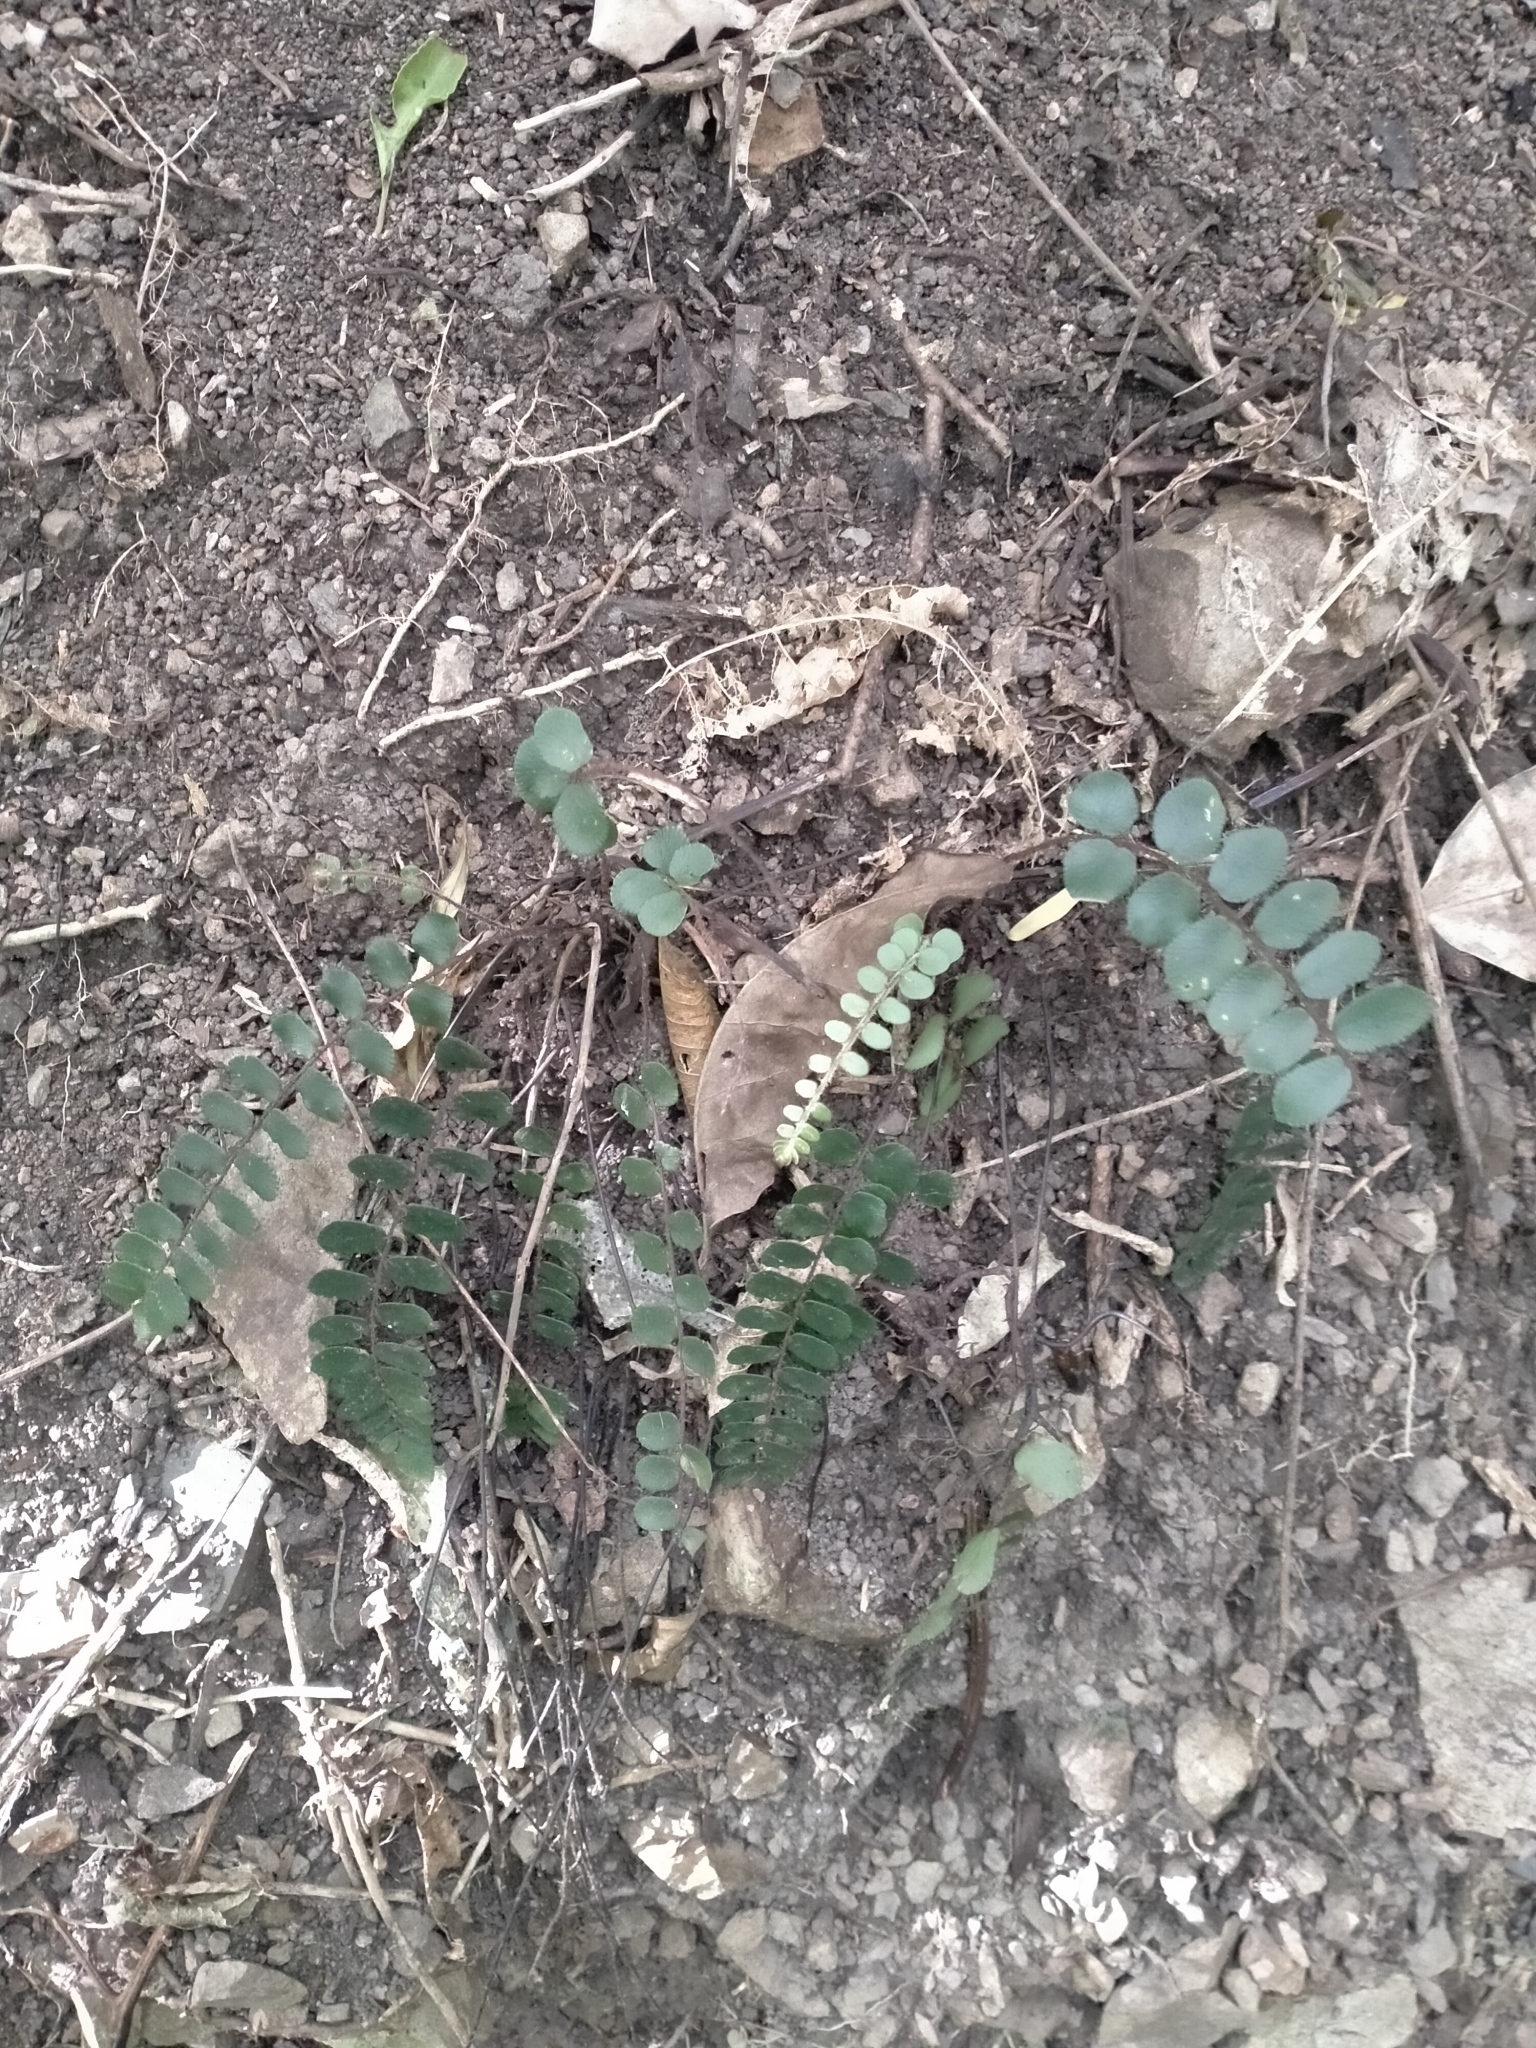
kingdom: Plantae
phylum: Tracheophyta
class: Polypodiopsida
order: Polypodiales
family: Pteridaceae
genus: Pellaea
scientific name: Pellaea rotundifolia
